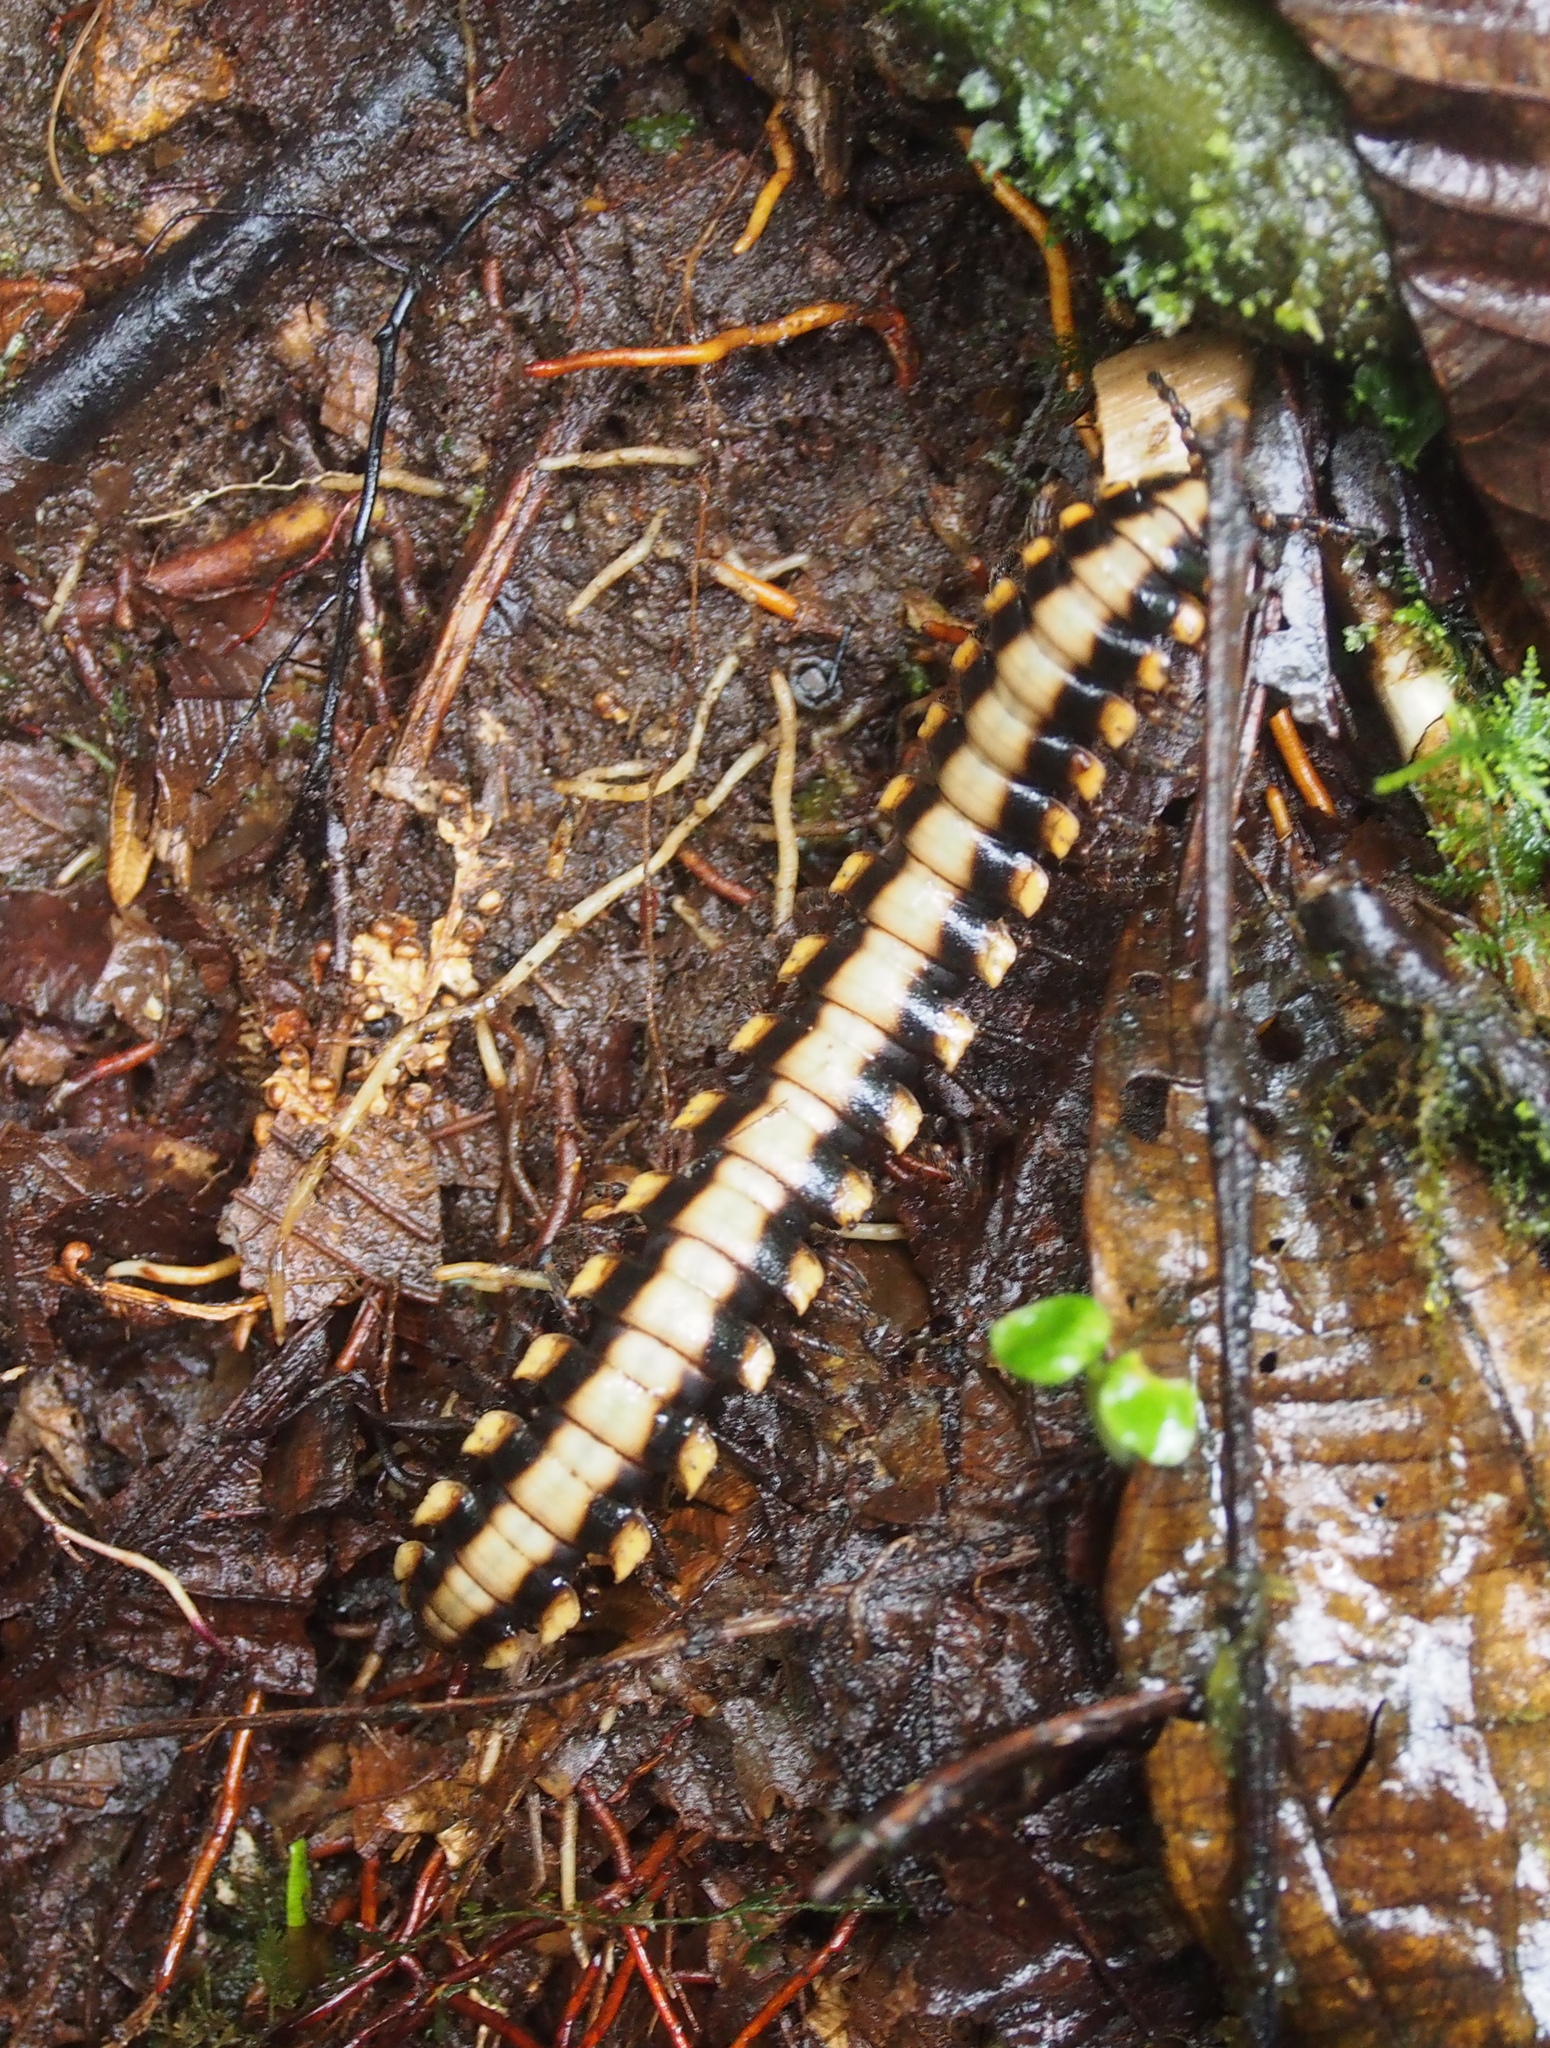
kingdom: Animalia
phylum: Arthropoda
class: Diplopoda
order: Polydesmida
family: Platyrhacidae
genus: Nyssodesmus
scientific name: Nyssodesmus python
